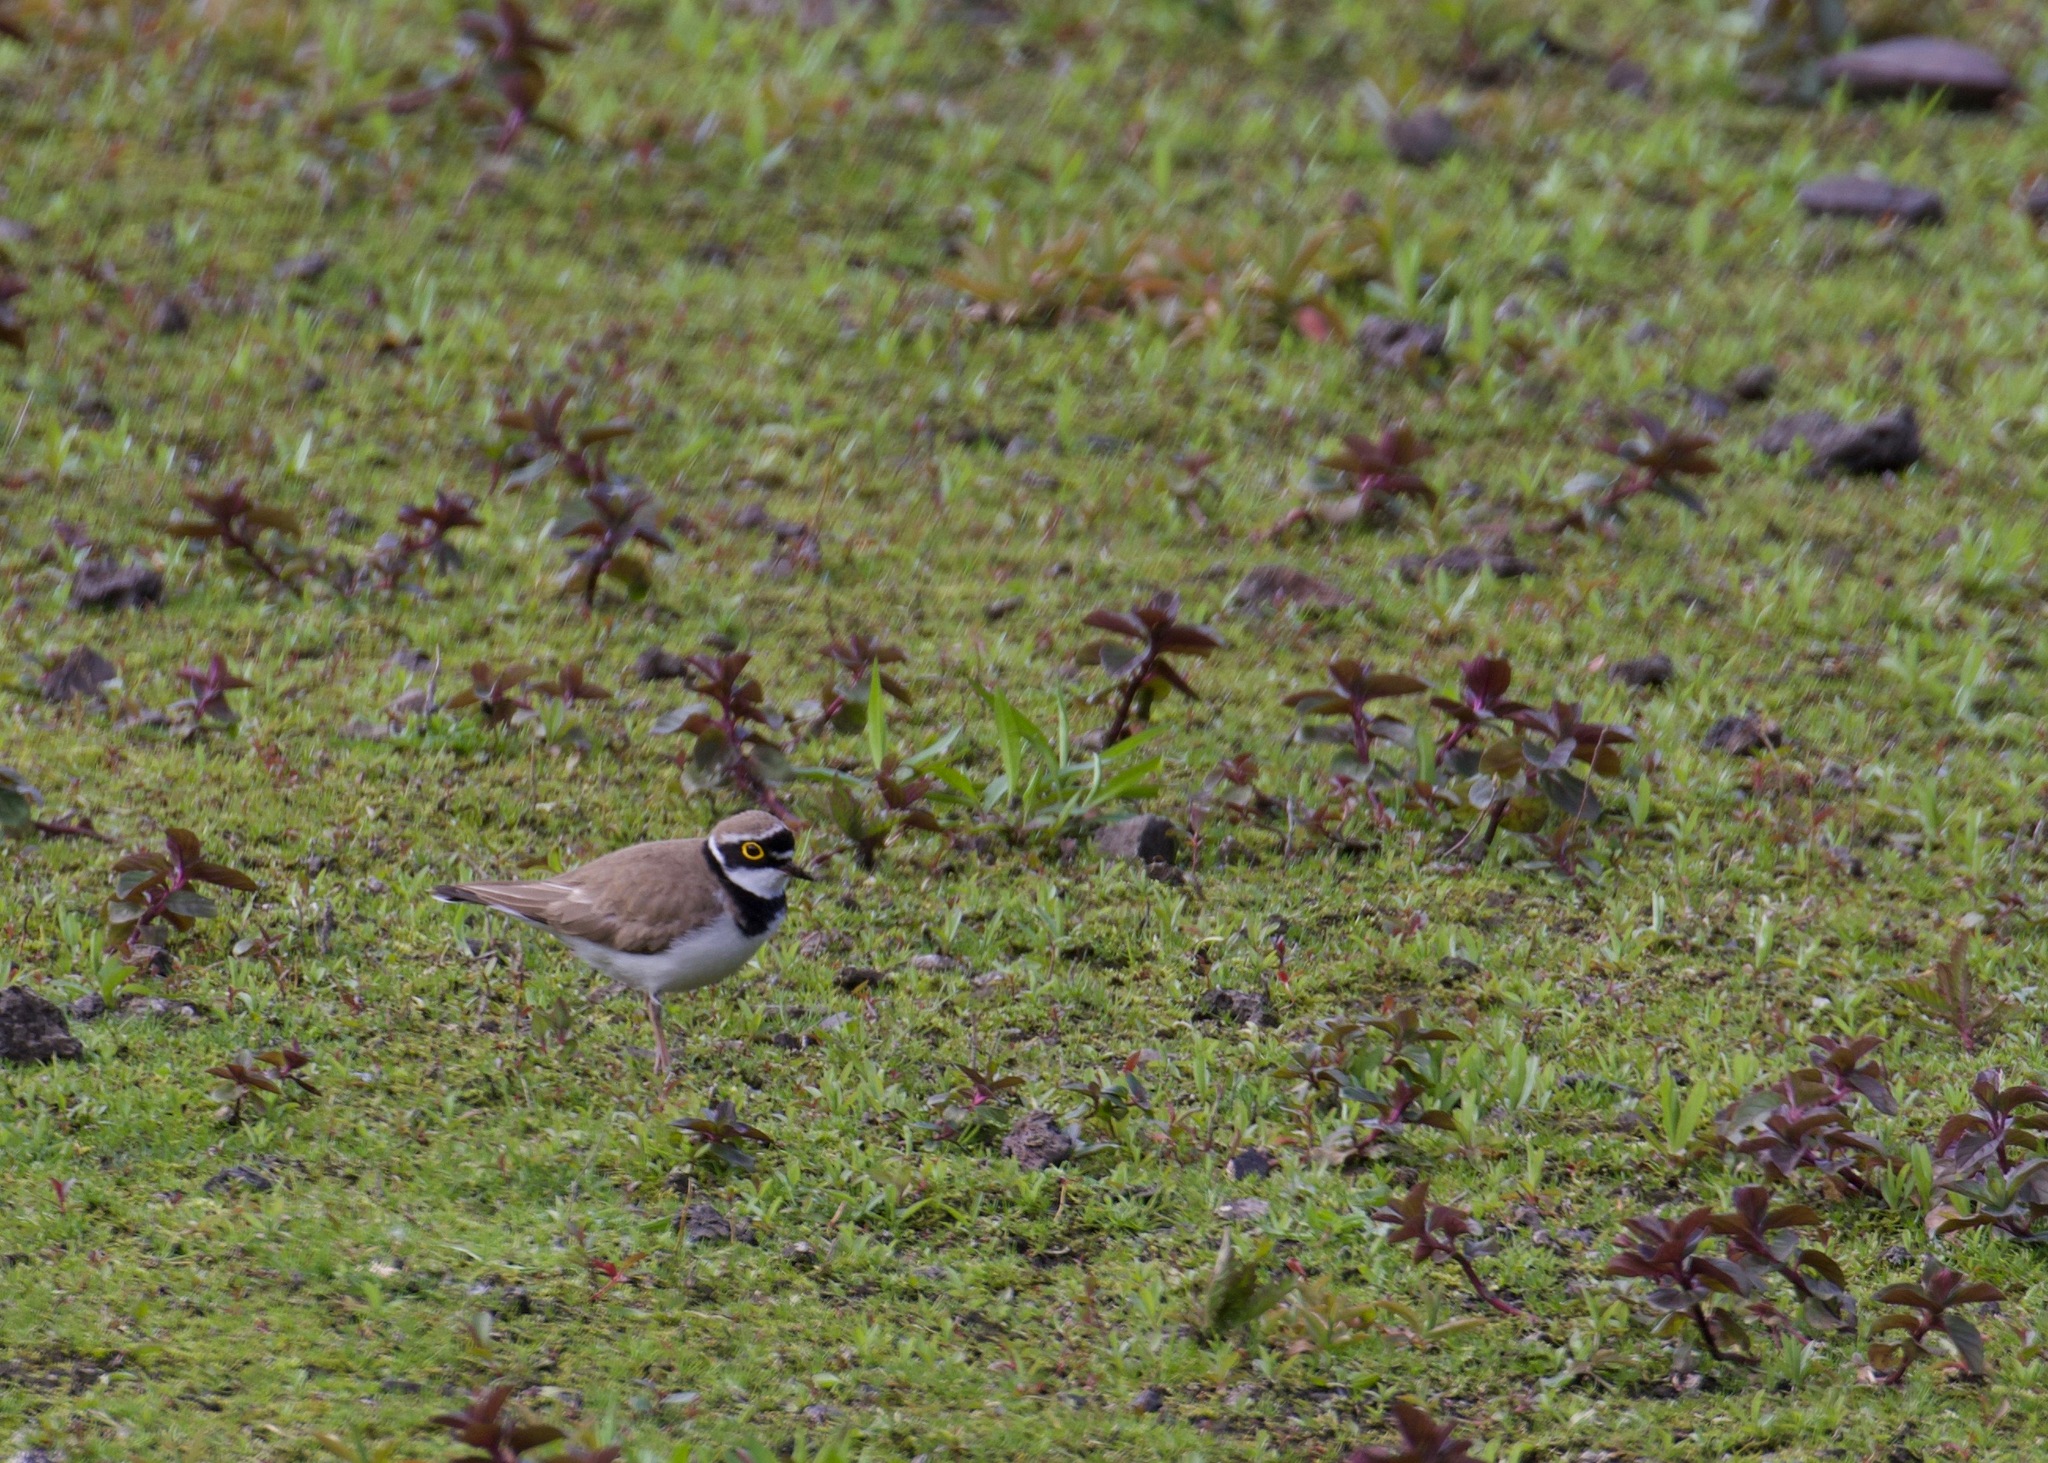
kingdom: Animalia
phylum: Chordata
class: Aves
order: Charadriiformes
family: Charadriidae
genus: Charadrius
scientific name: Charadrius dubius
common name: Little ringed plover
